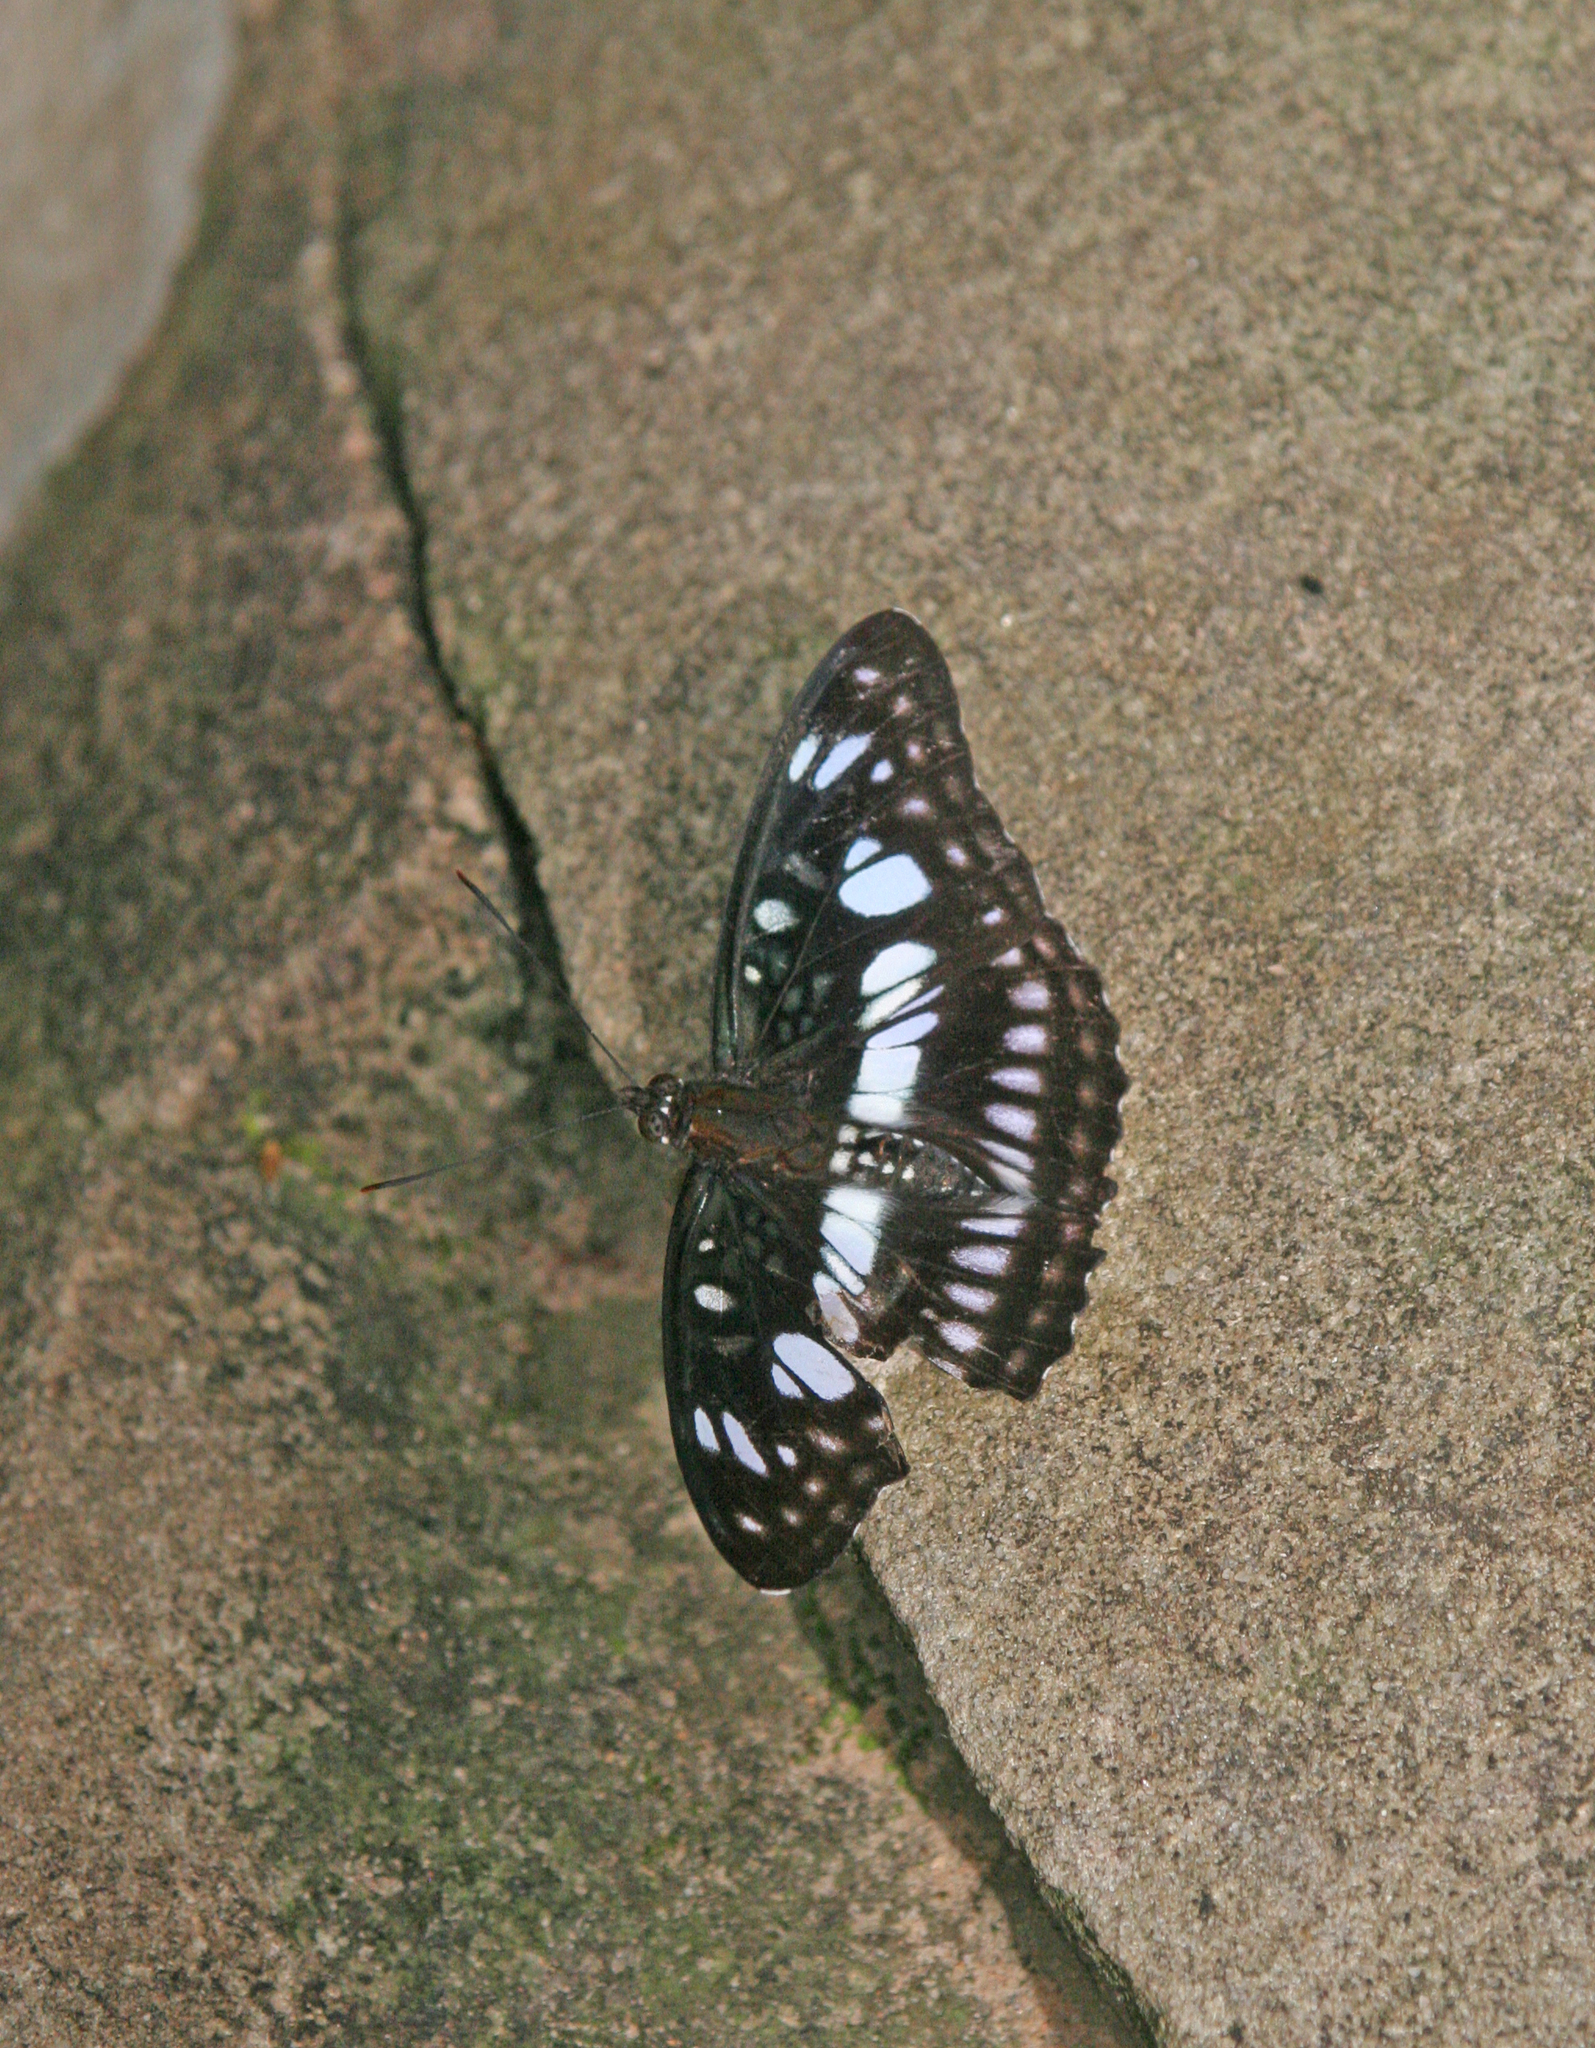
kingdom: Animalia
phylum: Arthropoda
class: Insecta
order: Lepidoptera
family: Nymphalidae
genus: Parathyma
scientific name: Parathyma ranga
